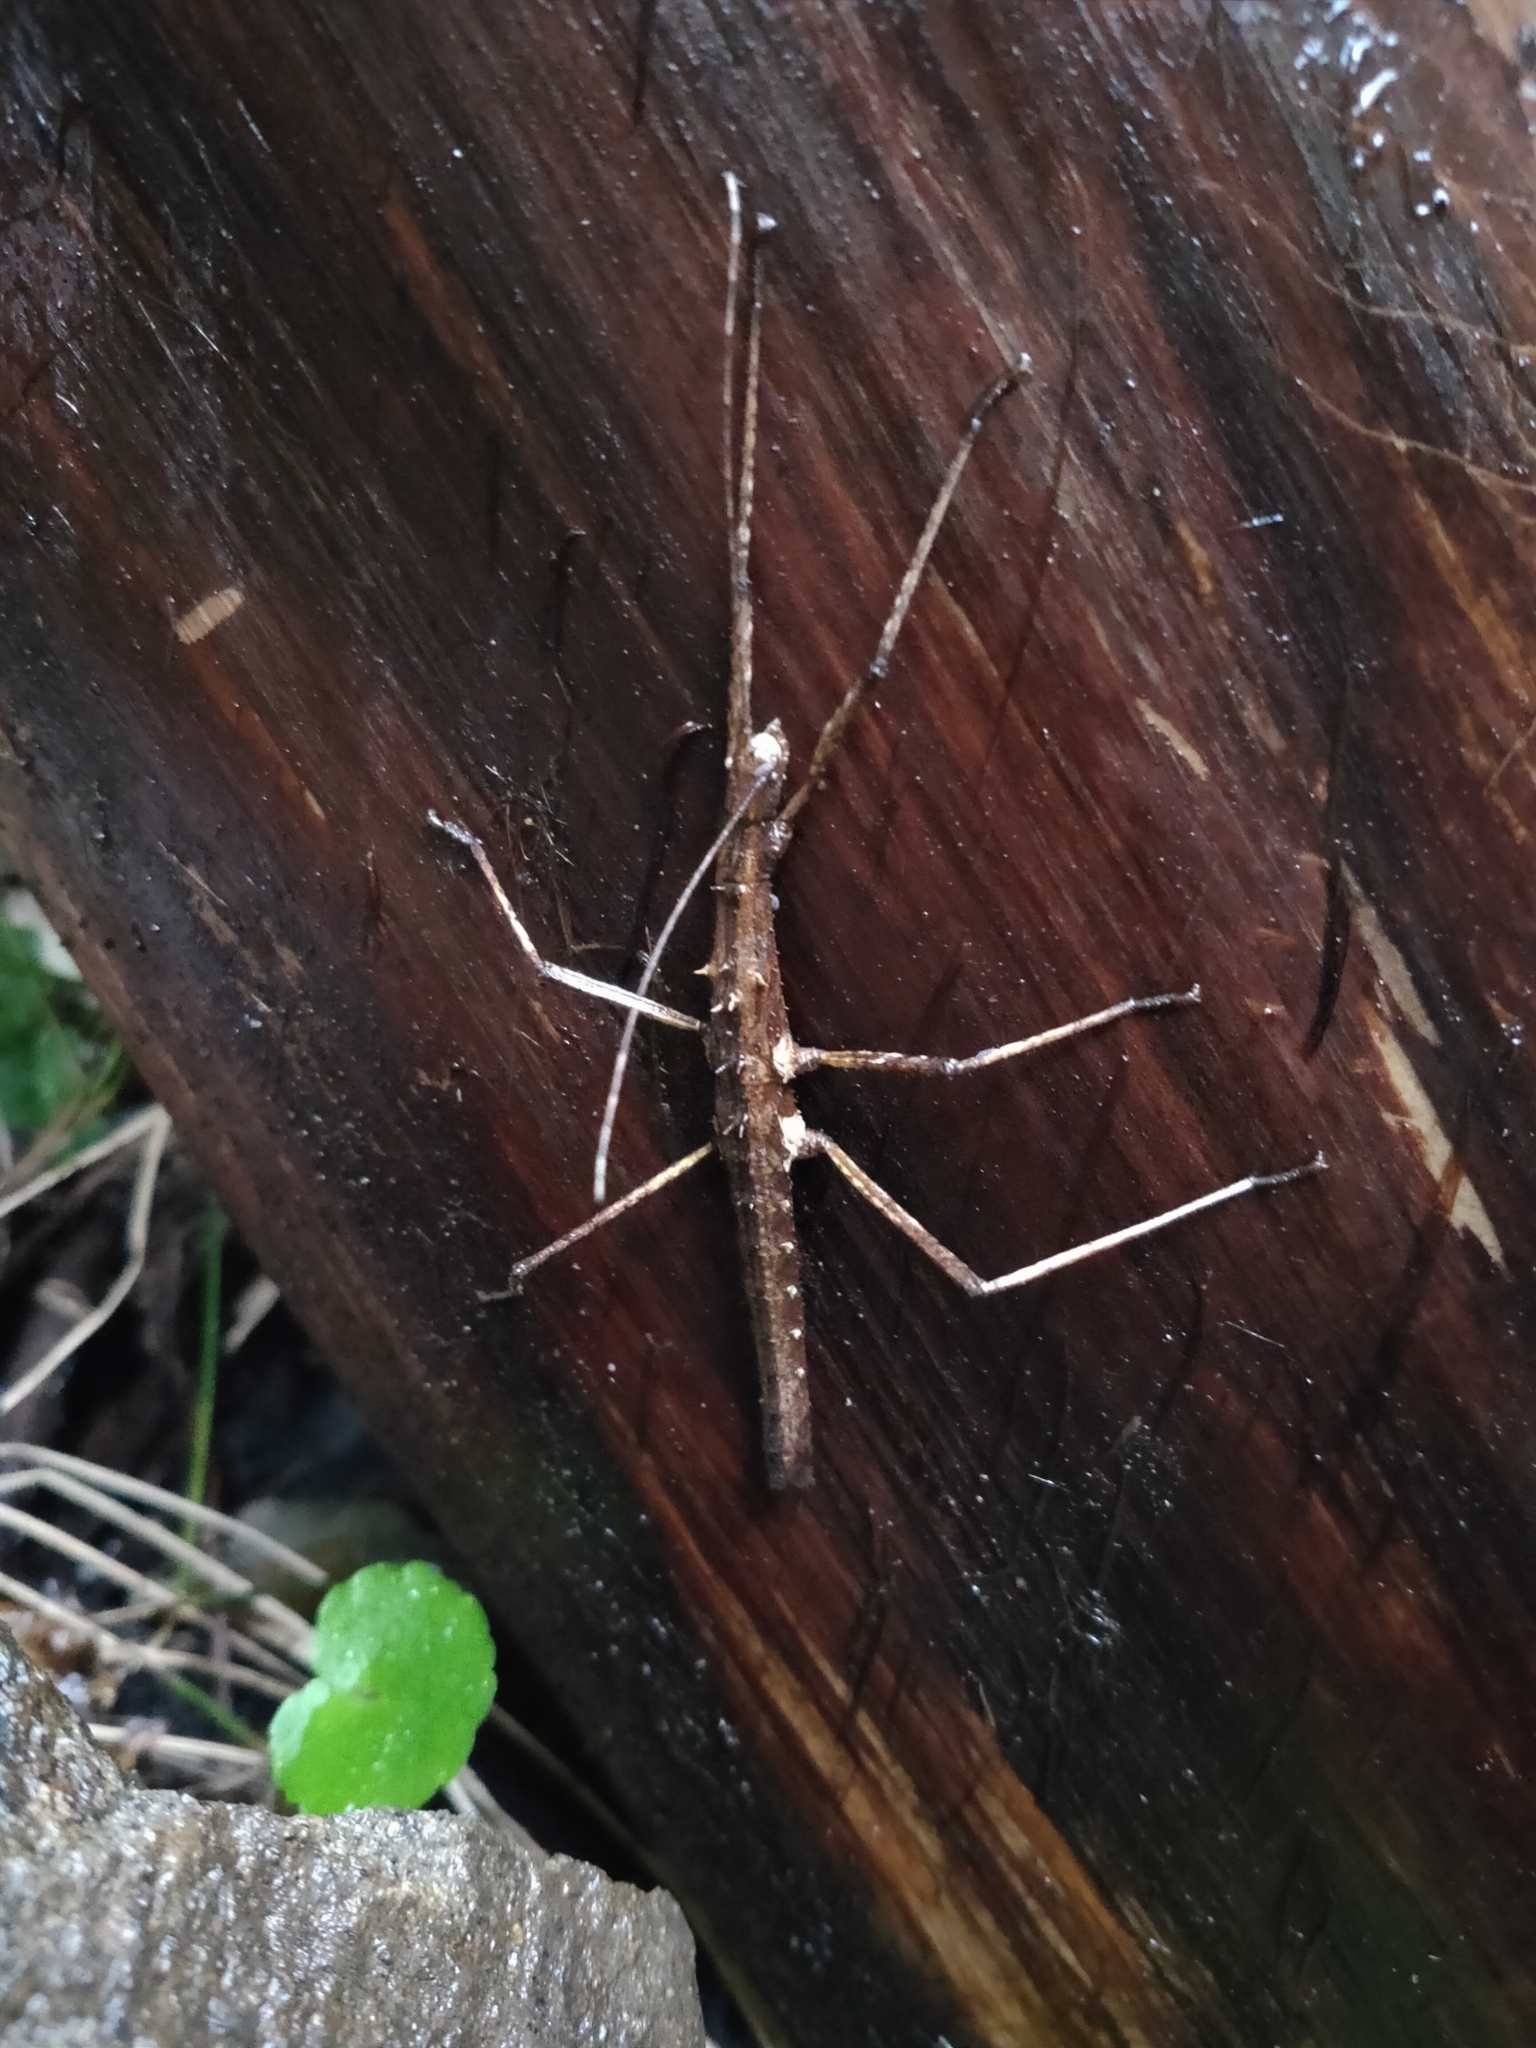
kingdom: Animalia
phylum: Arthropoda
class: Insecta
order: Phasmida
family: Lonchodidae
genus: Neohirasea
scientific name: Neohirasea japonica
